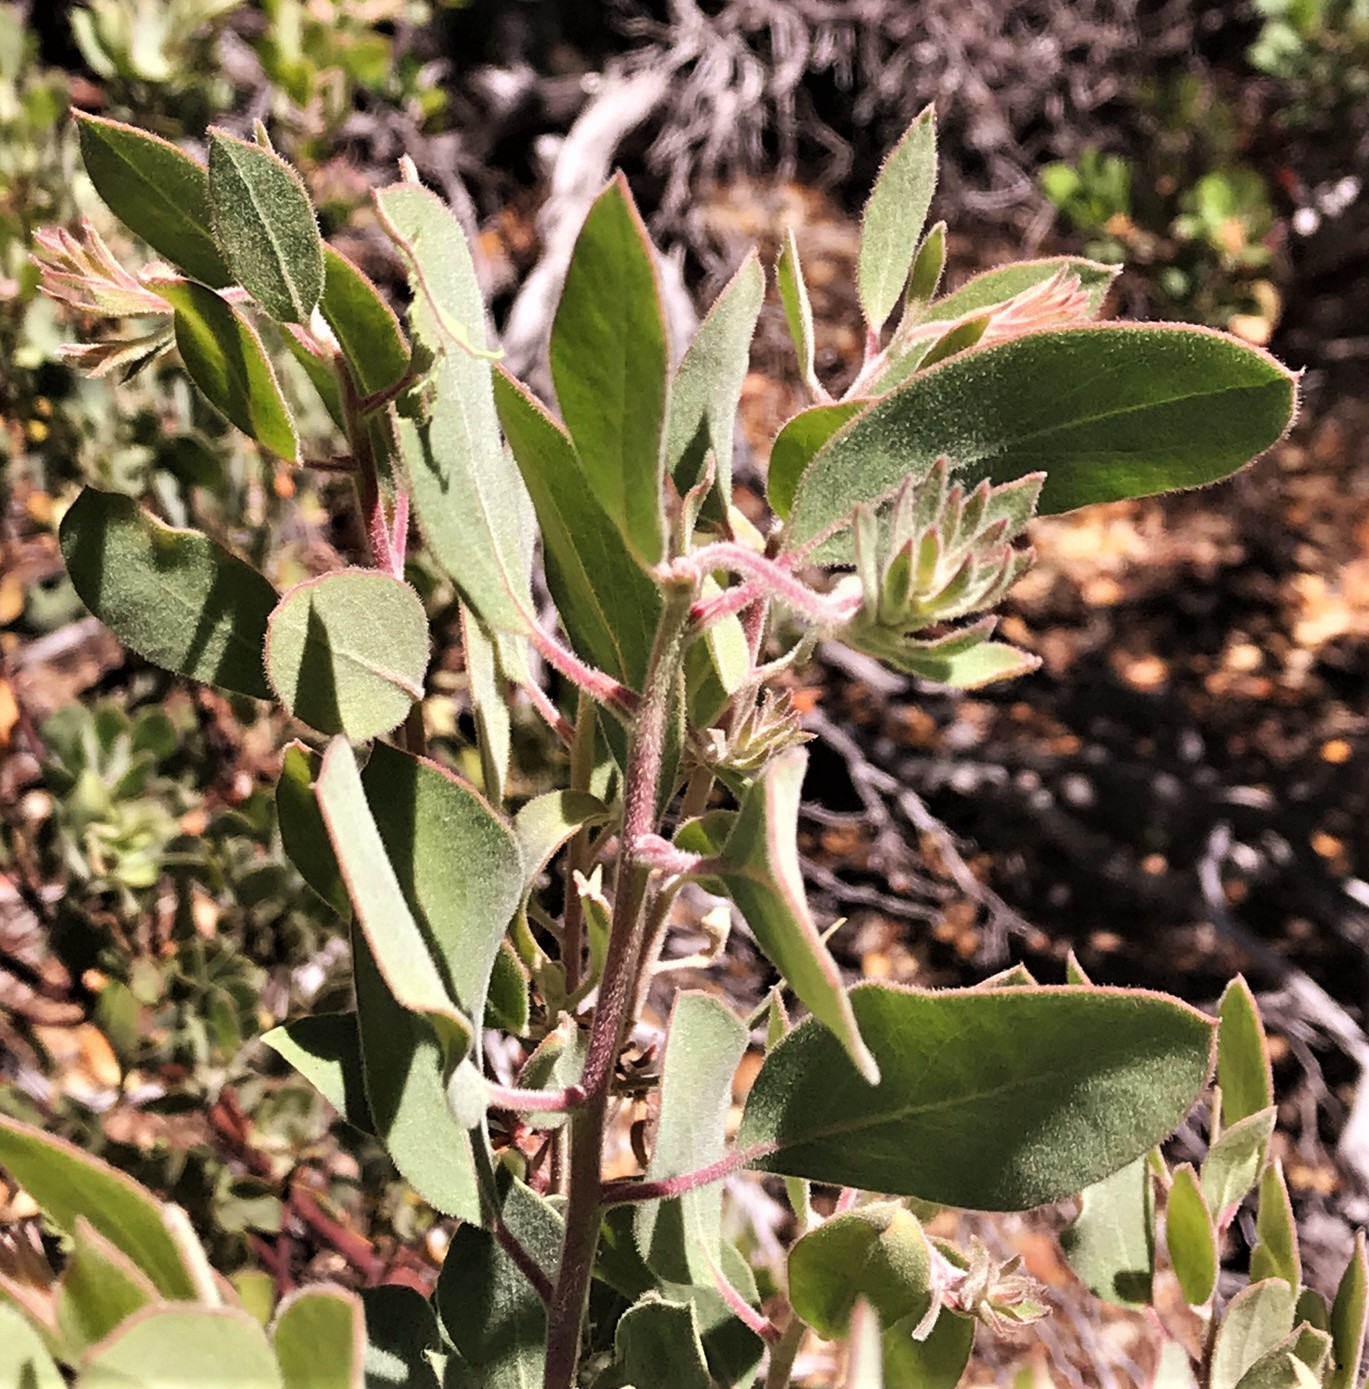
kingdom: Plantae
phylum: Tracheophyta
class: Magnoliopsida
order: Ericales
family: Ericaceae
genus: Arctostaphylos
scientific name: Arctostaphylos canescens
